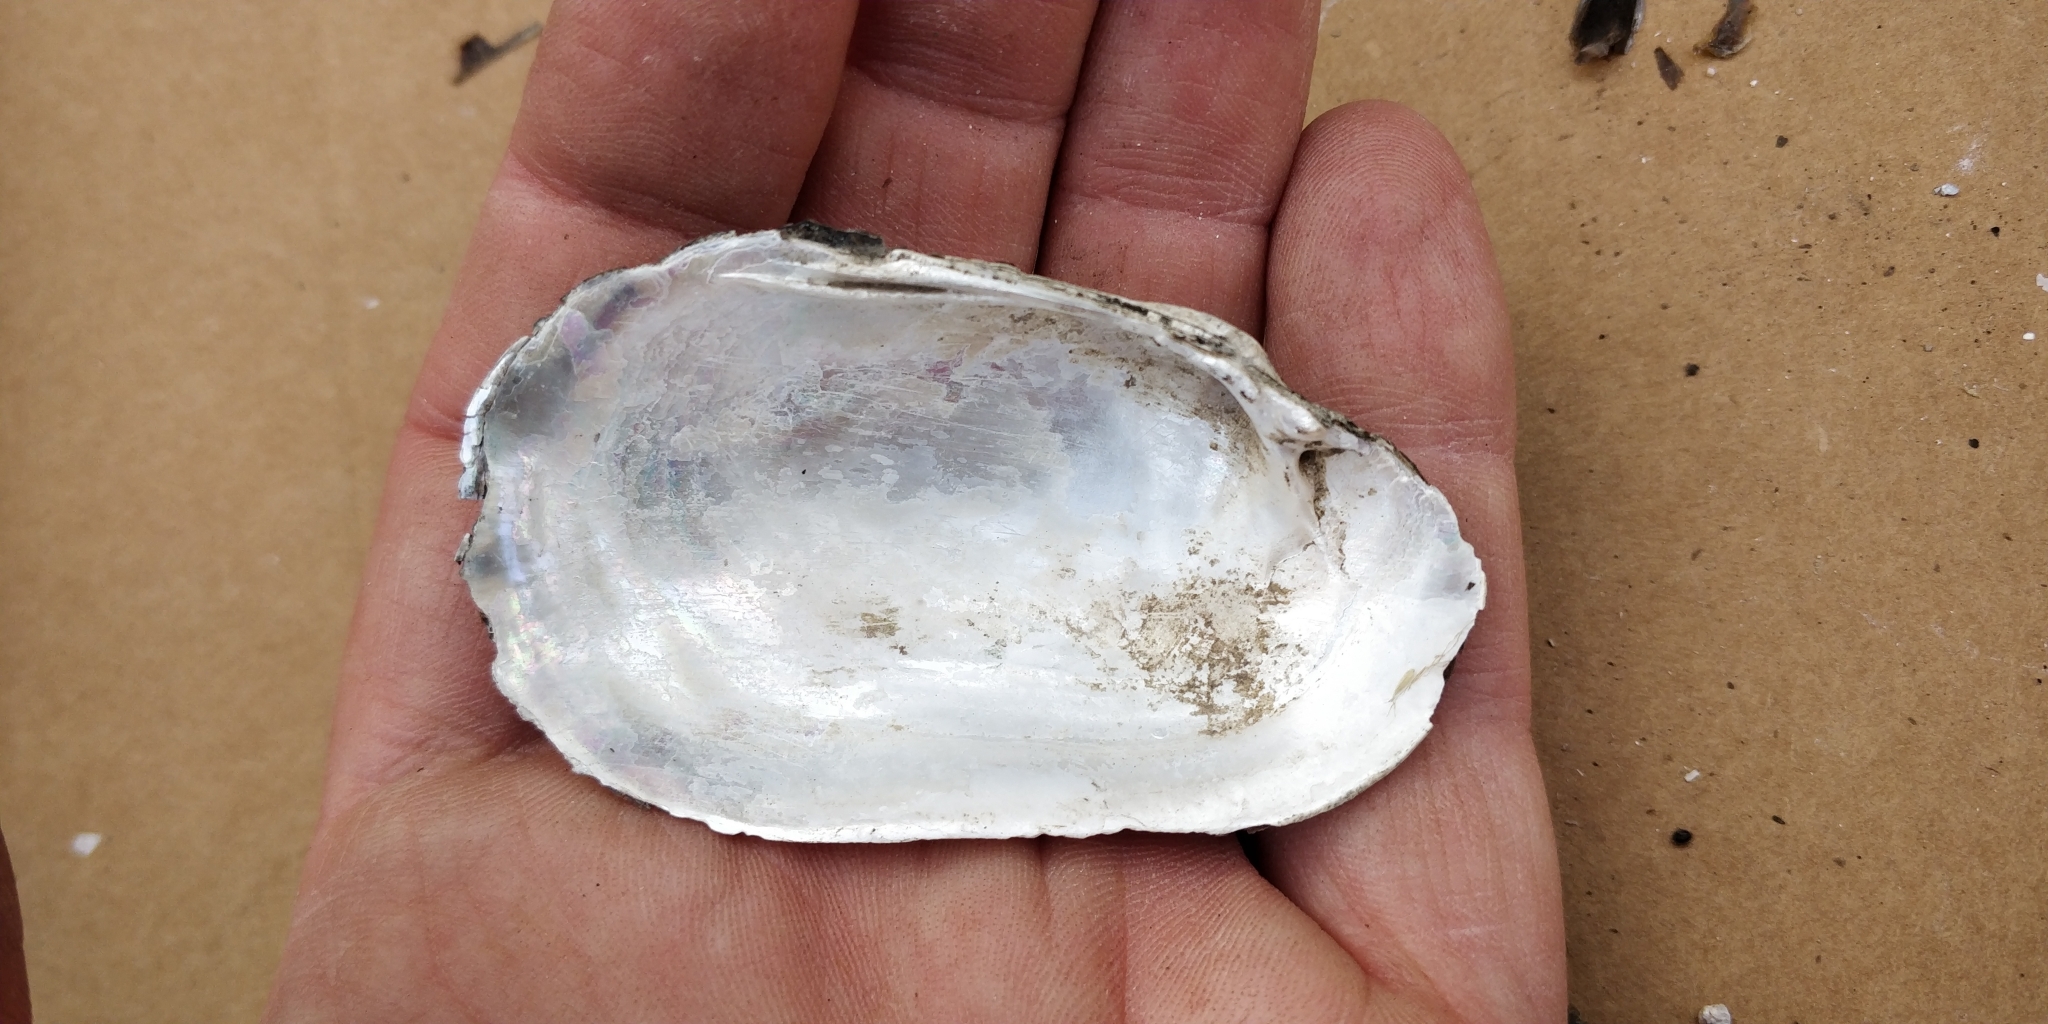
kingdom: Animalia
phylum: Mollusca
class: Bivalvia
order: Unionida
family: Unionidae
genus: Lampsilis
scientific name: Lampsilis siliquoidea
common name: Fatmucket
